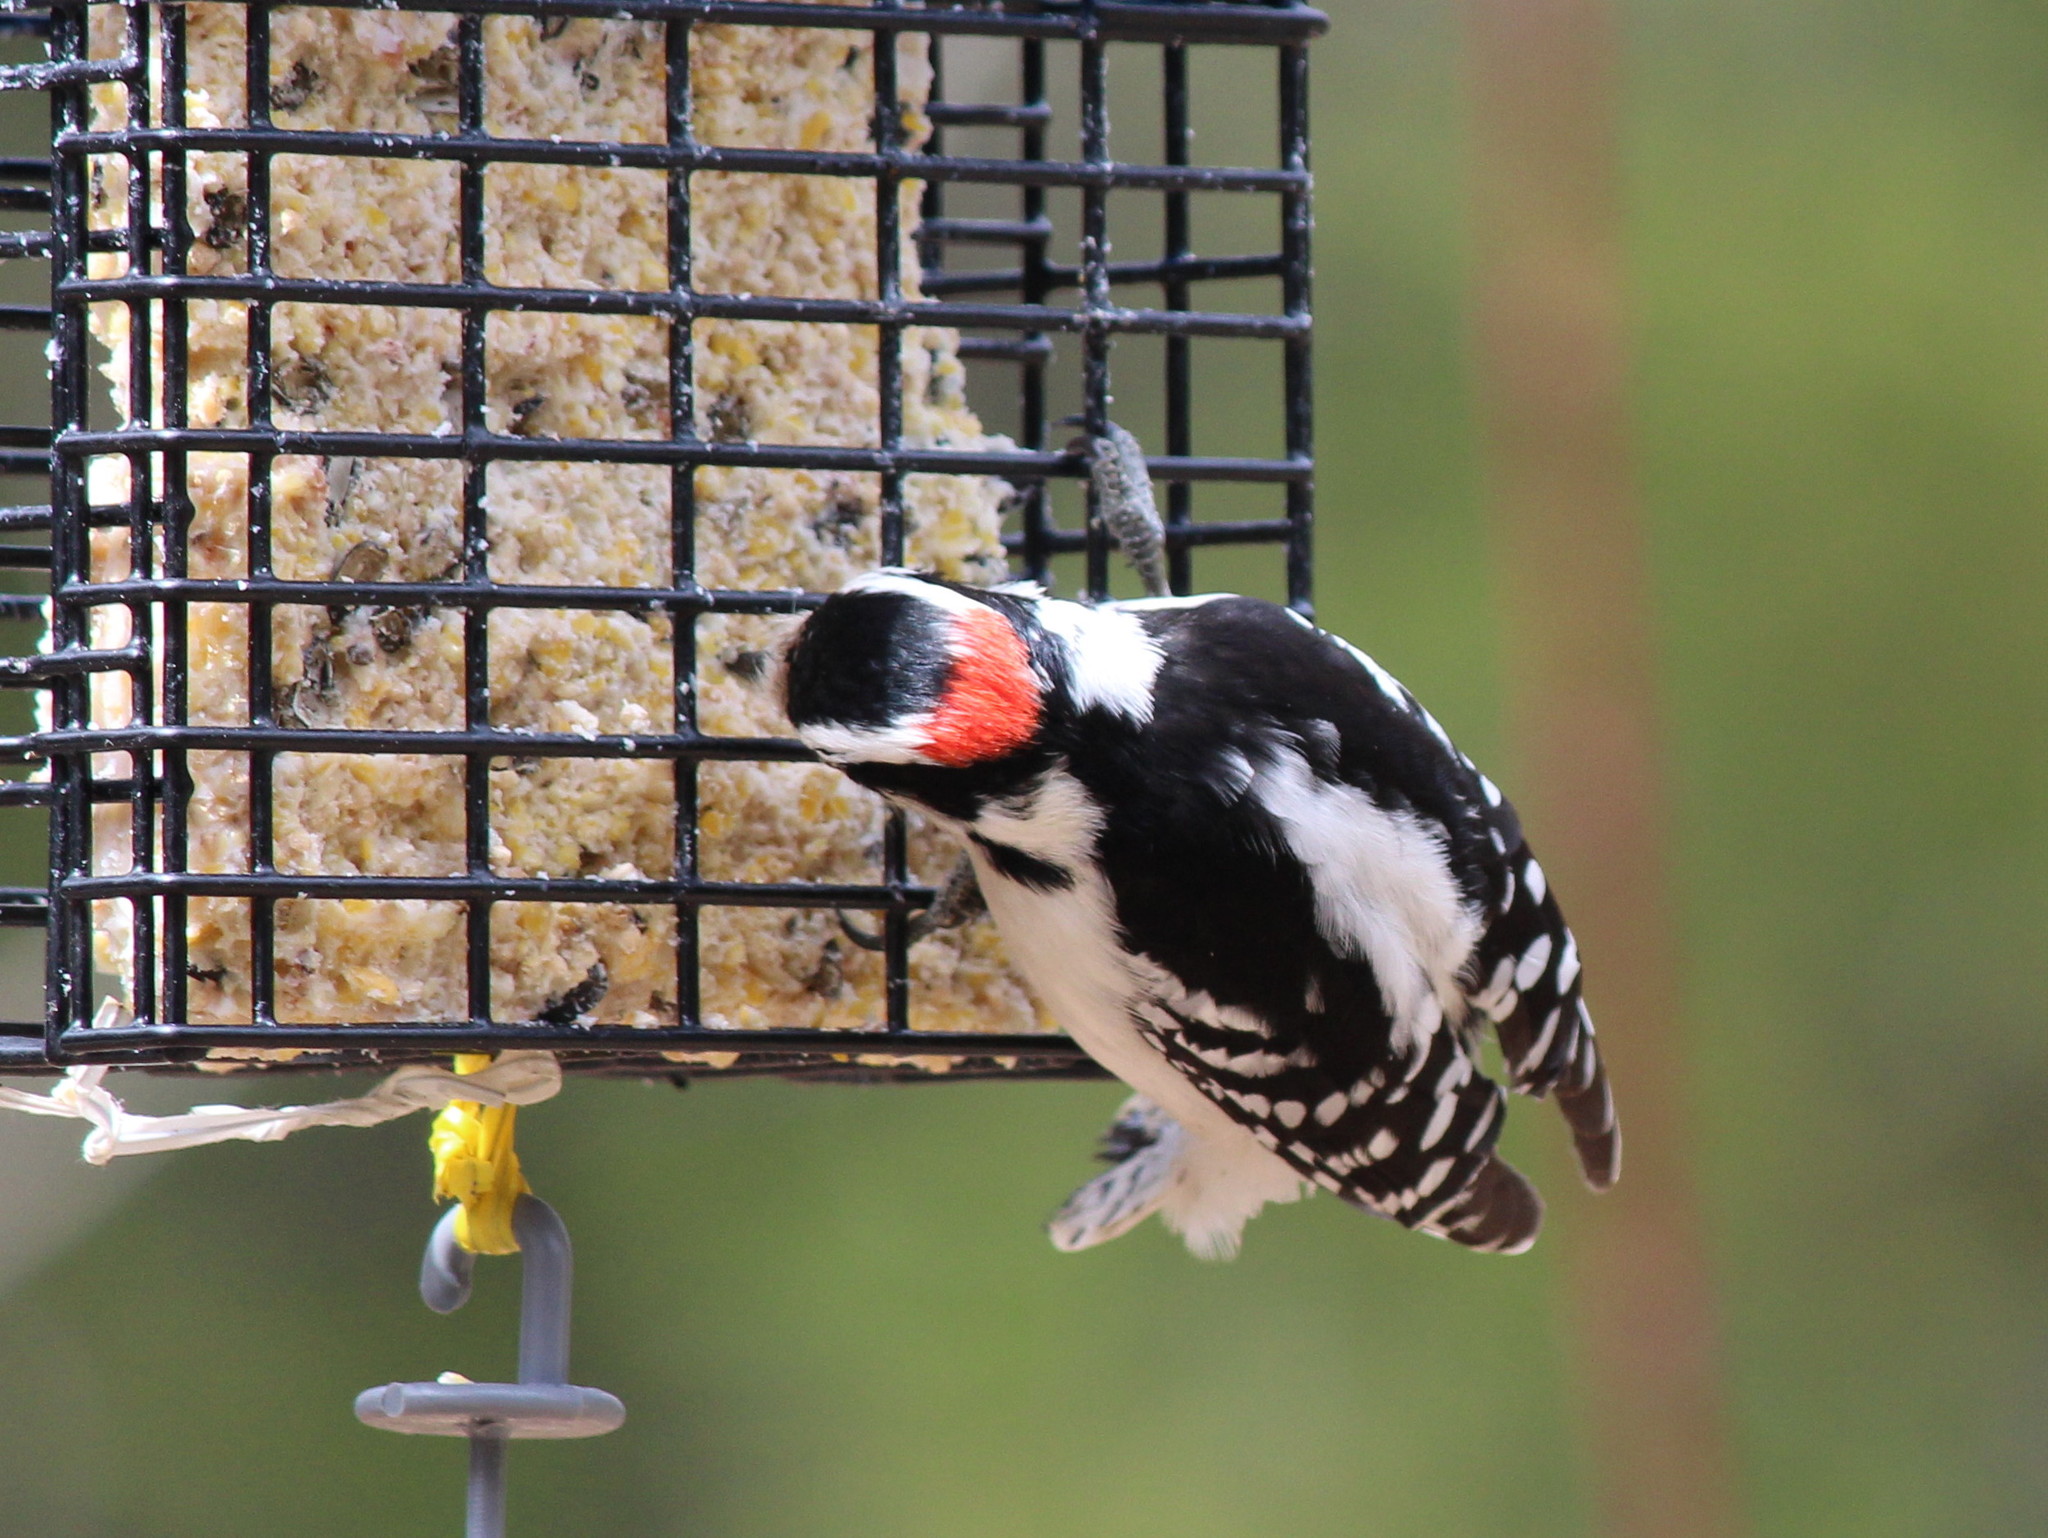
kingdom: Animalia
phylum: Chordata
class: Aves
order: Piciformes
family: Picidae
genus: Dryobates
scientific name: Dryobates pubescens
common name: Downy woodpecker
